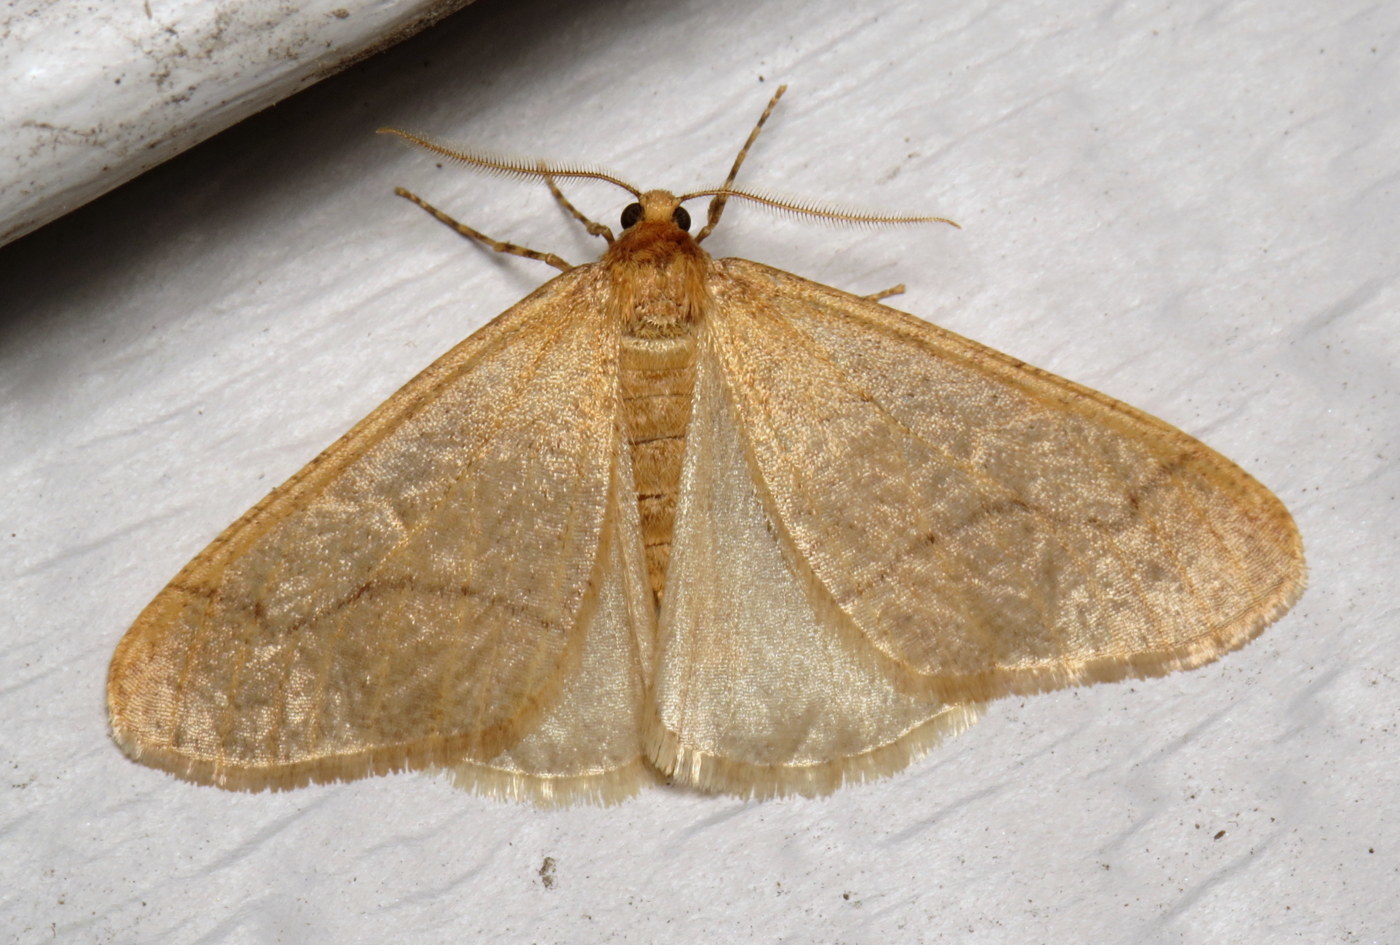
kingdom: Animalia
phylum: Arthropoda
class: Insecta
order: Lepidoptera
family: Geometridae
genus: Erannis
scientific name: Erannis tiliaria
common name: Linden looper
